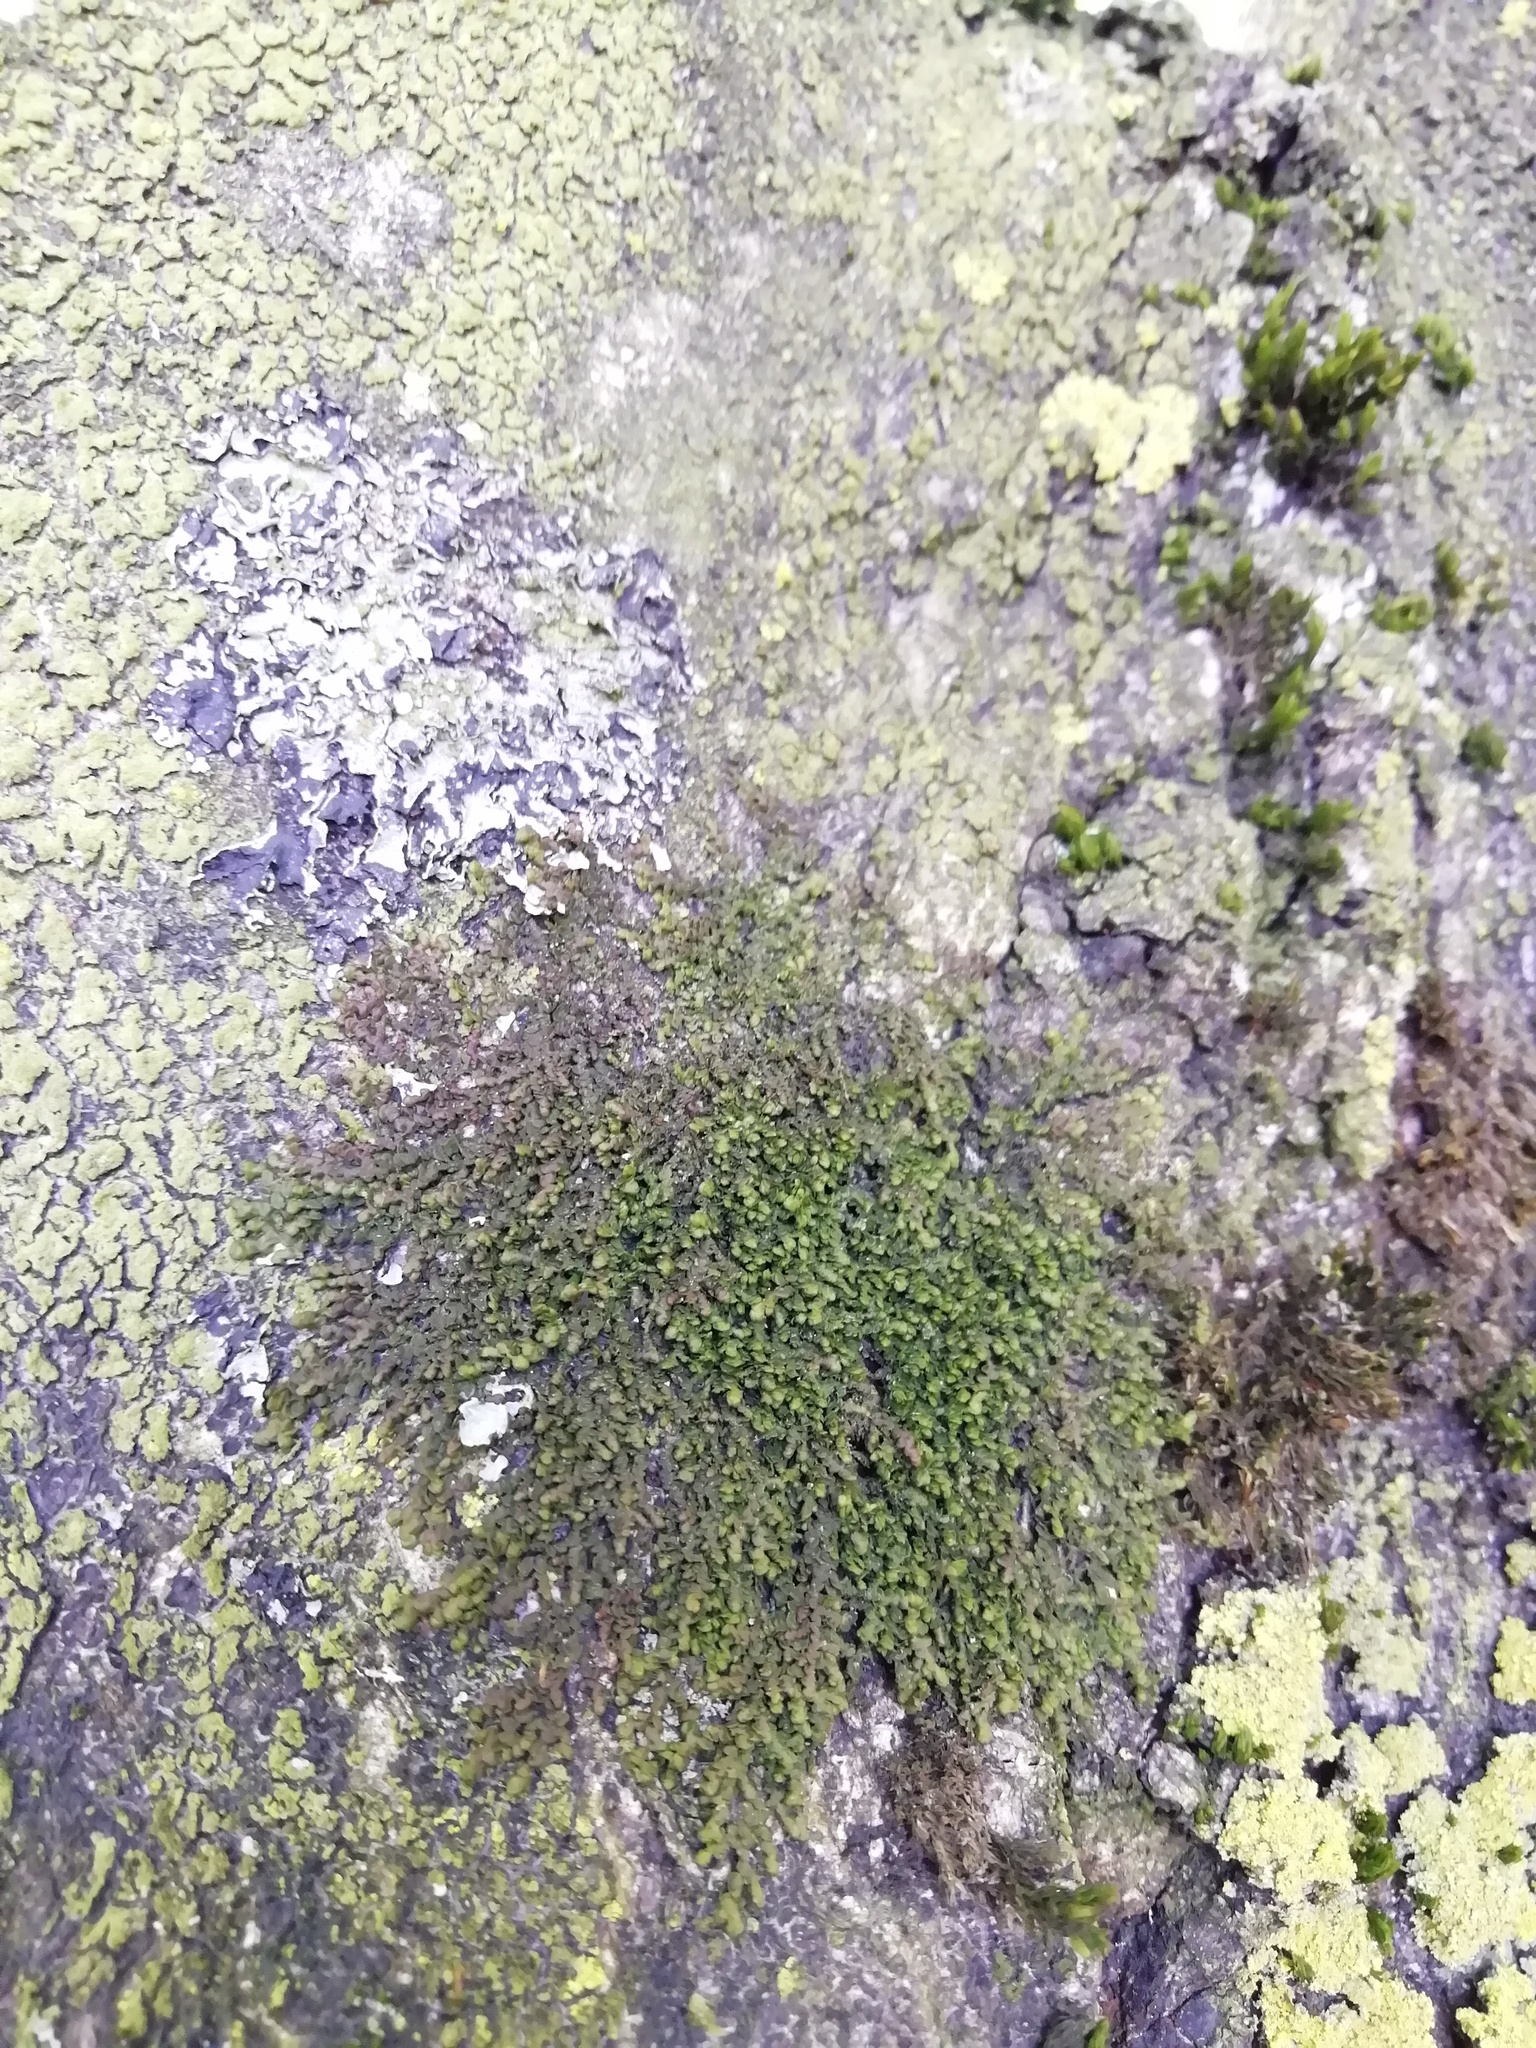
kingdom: Plantae
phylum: Marchantiophyta
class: Jungermanniopsida
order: Porellales
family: Frullaniaceae
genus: Frullania
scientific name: Frullania dilatata
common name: Dilated scalewort
